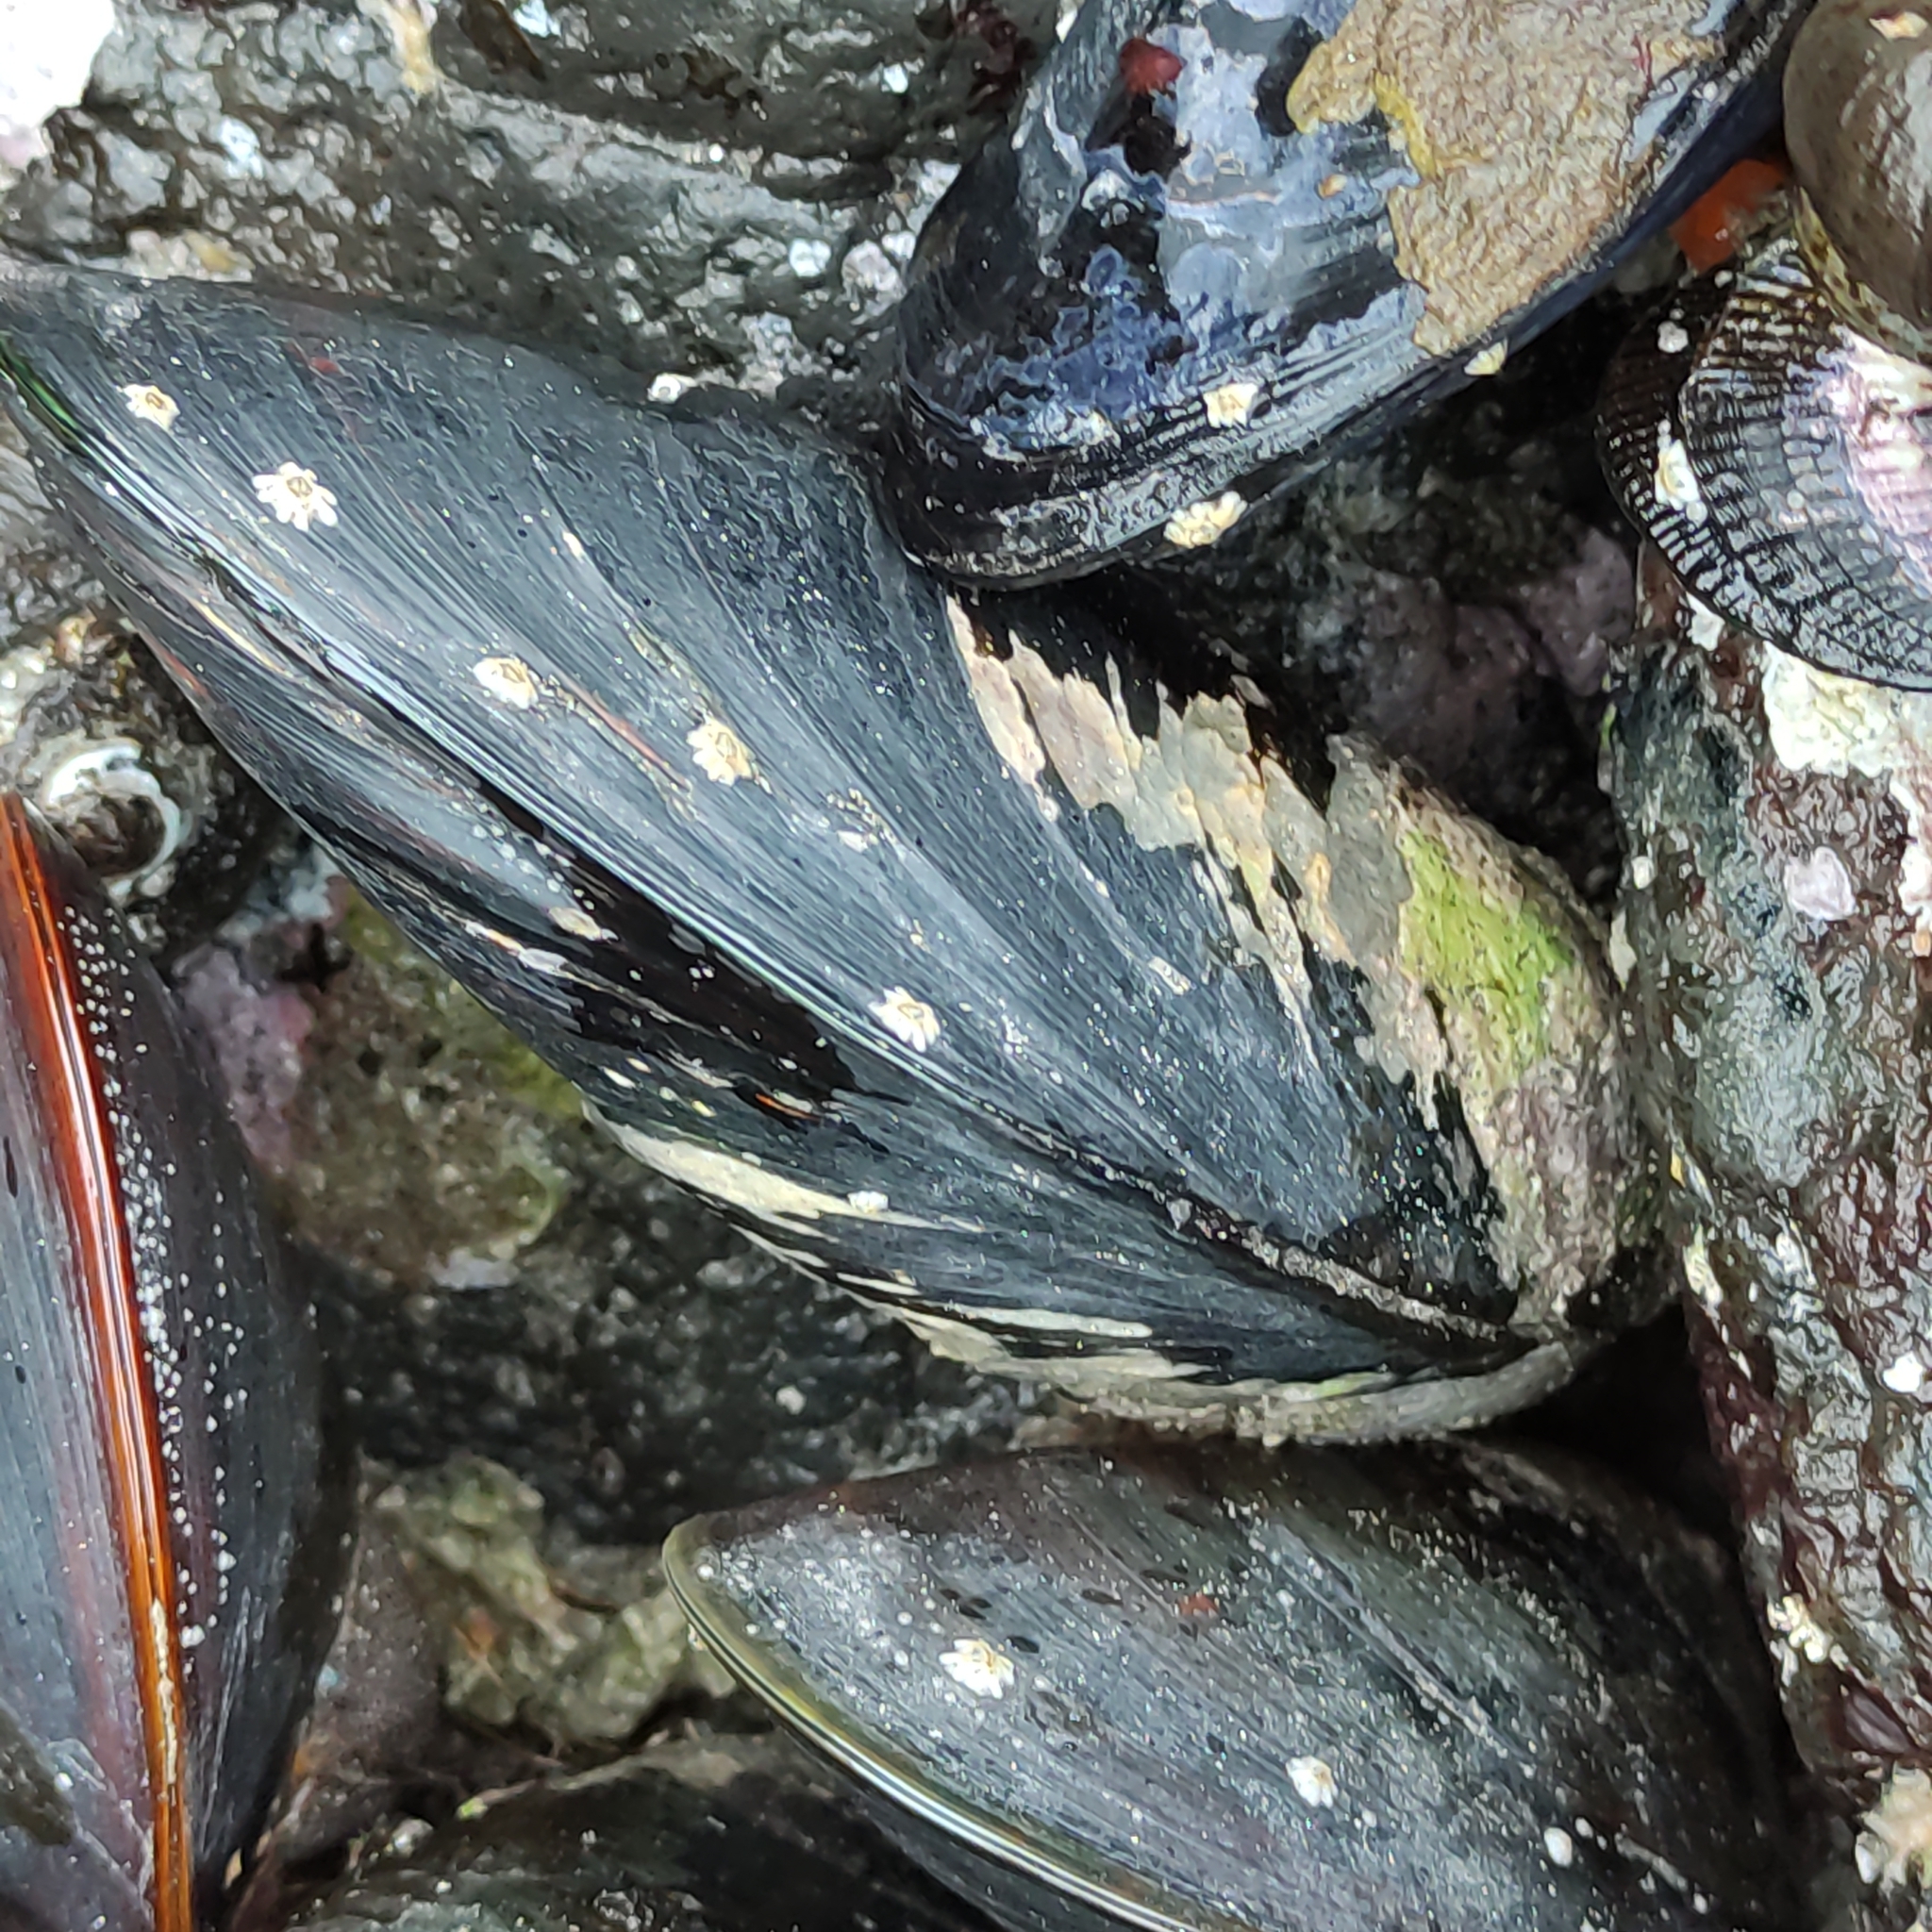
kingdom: Animalia
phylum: Mollusca
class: Bivalvia
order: Mytilida
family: Mytilidae
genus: Perna
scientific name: Perna canaliculus
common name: New zealand greenshelltm
